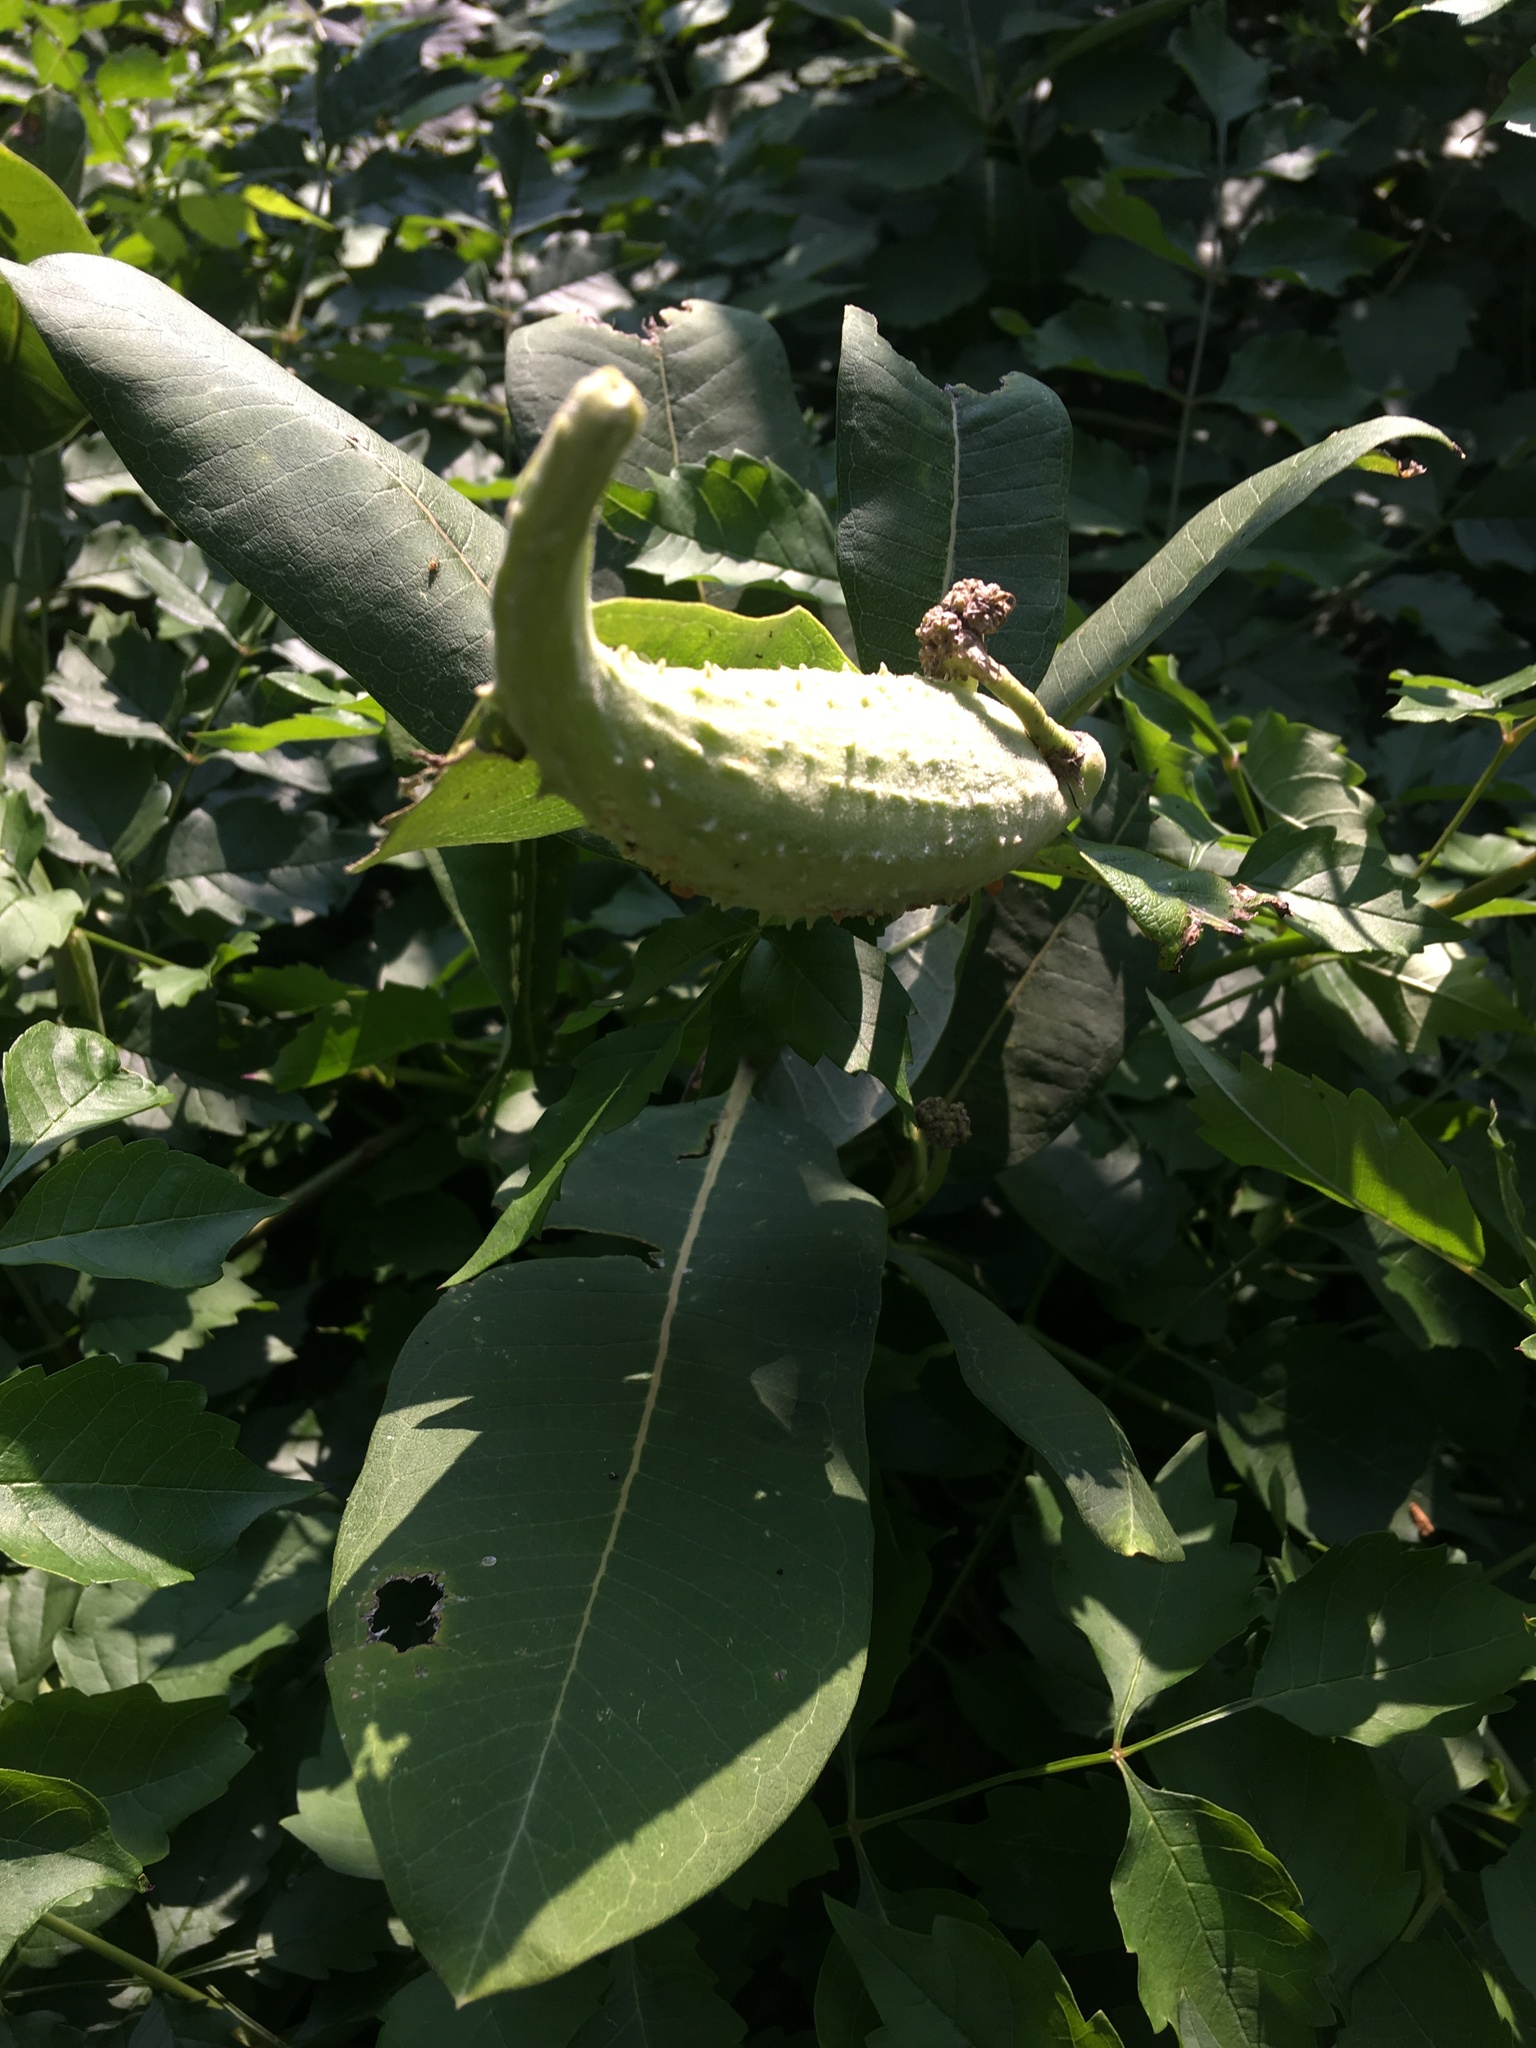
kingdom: Plantae
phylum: Tracheophyta
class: Magnoliopsida
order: Gentianales
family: Apocynaceae
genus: Asclepias
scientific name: Asclepias syriaca
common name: Common milkweed
